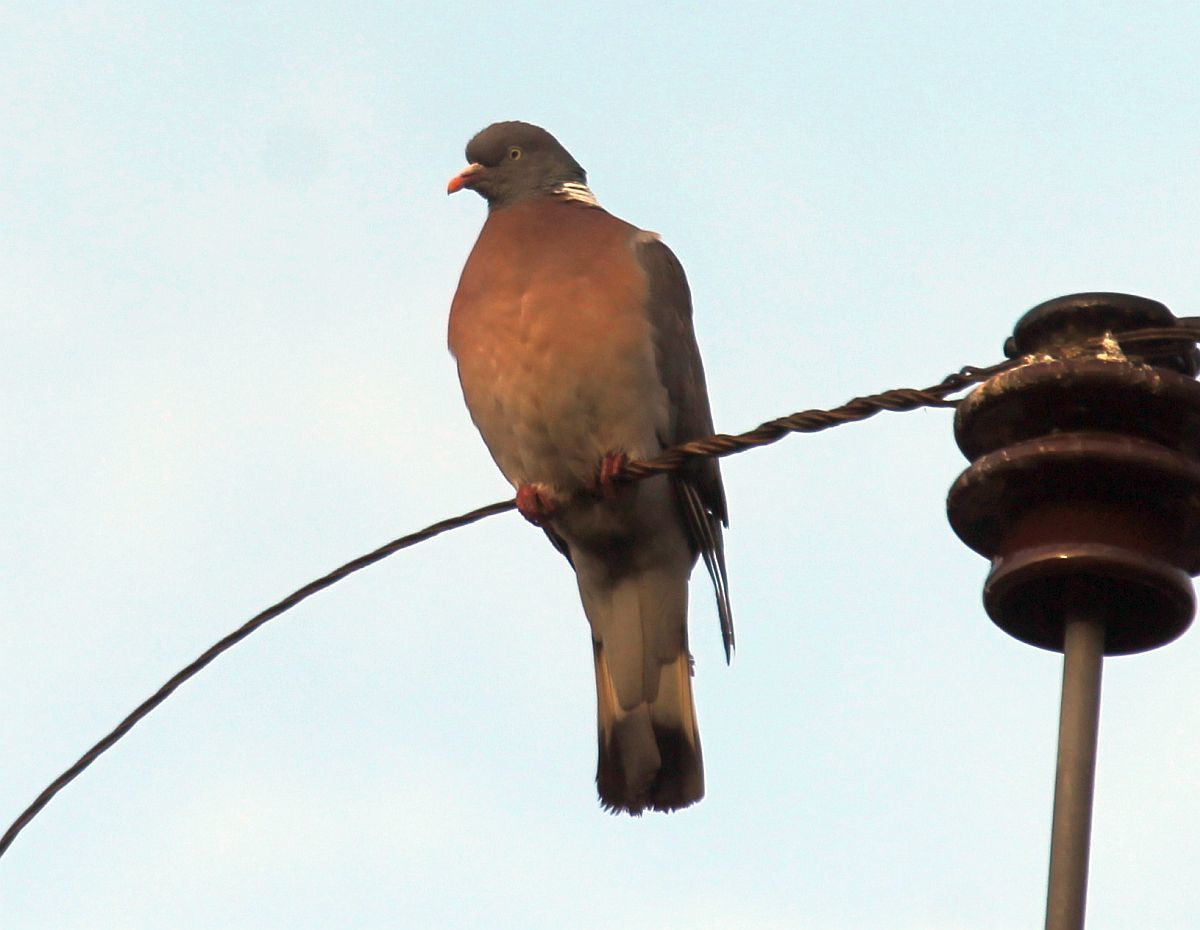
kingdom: Animalia
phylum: Chordata
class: Aves
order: Columbiformes
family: Columbidae
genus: Columba
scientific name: Columba palumbus
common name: Common wood pigeon
